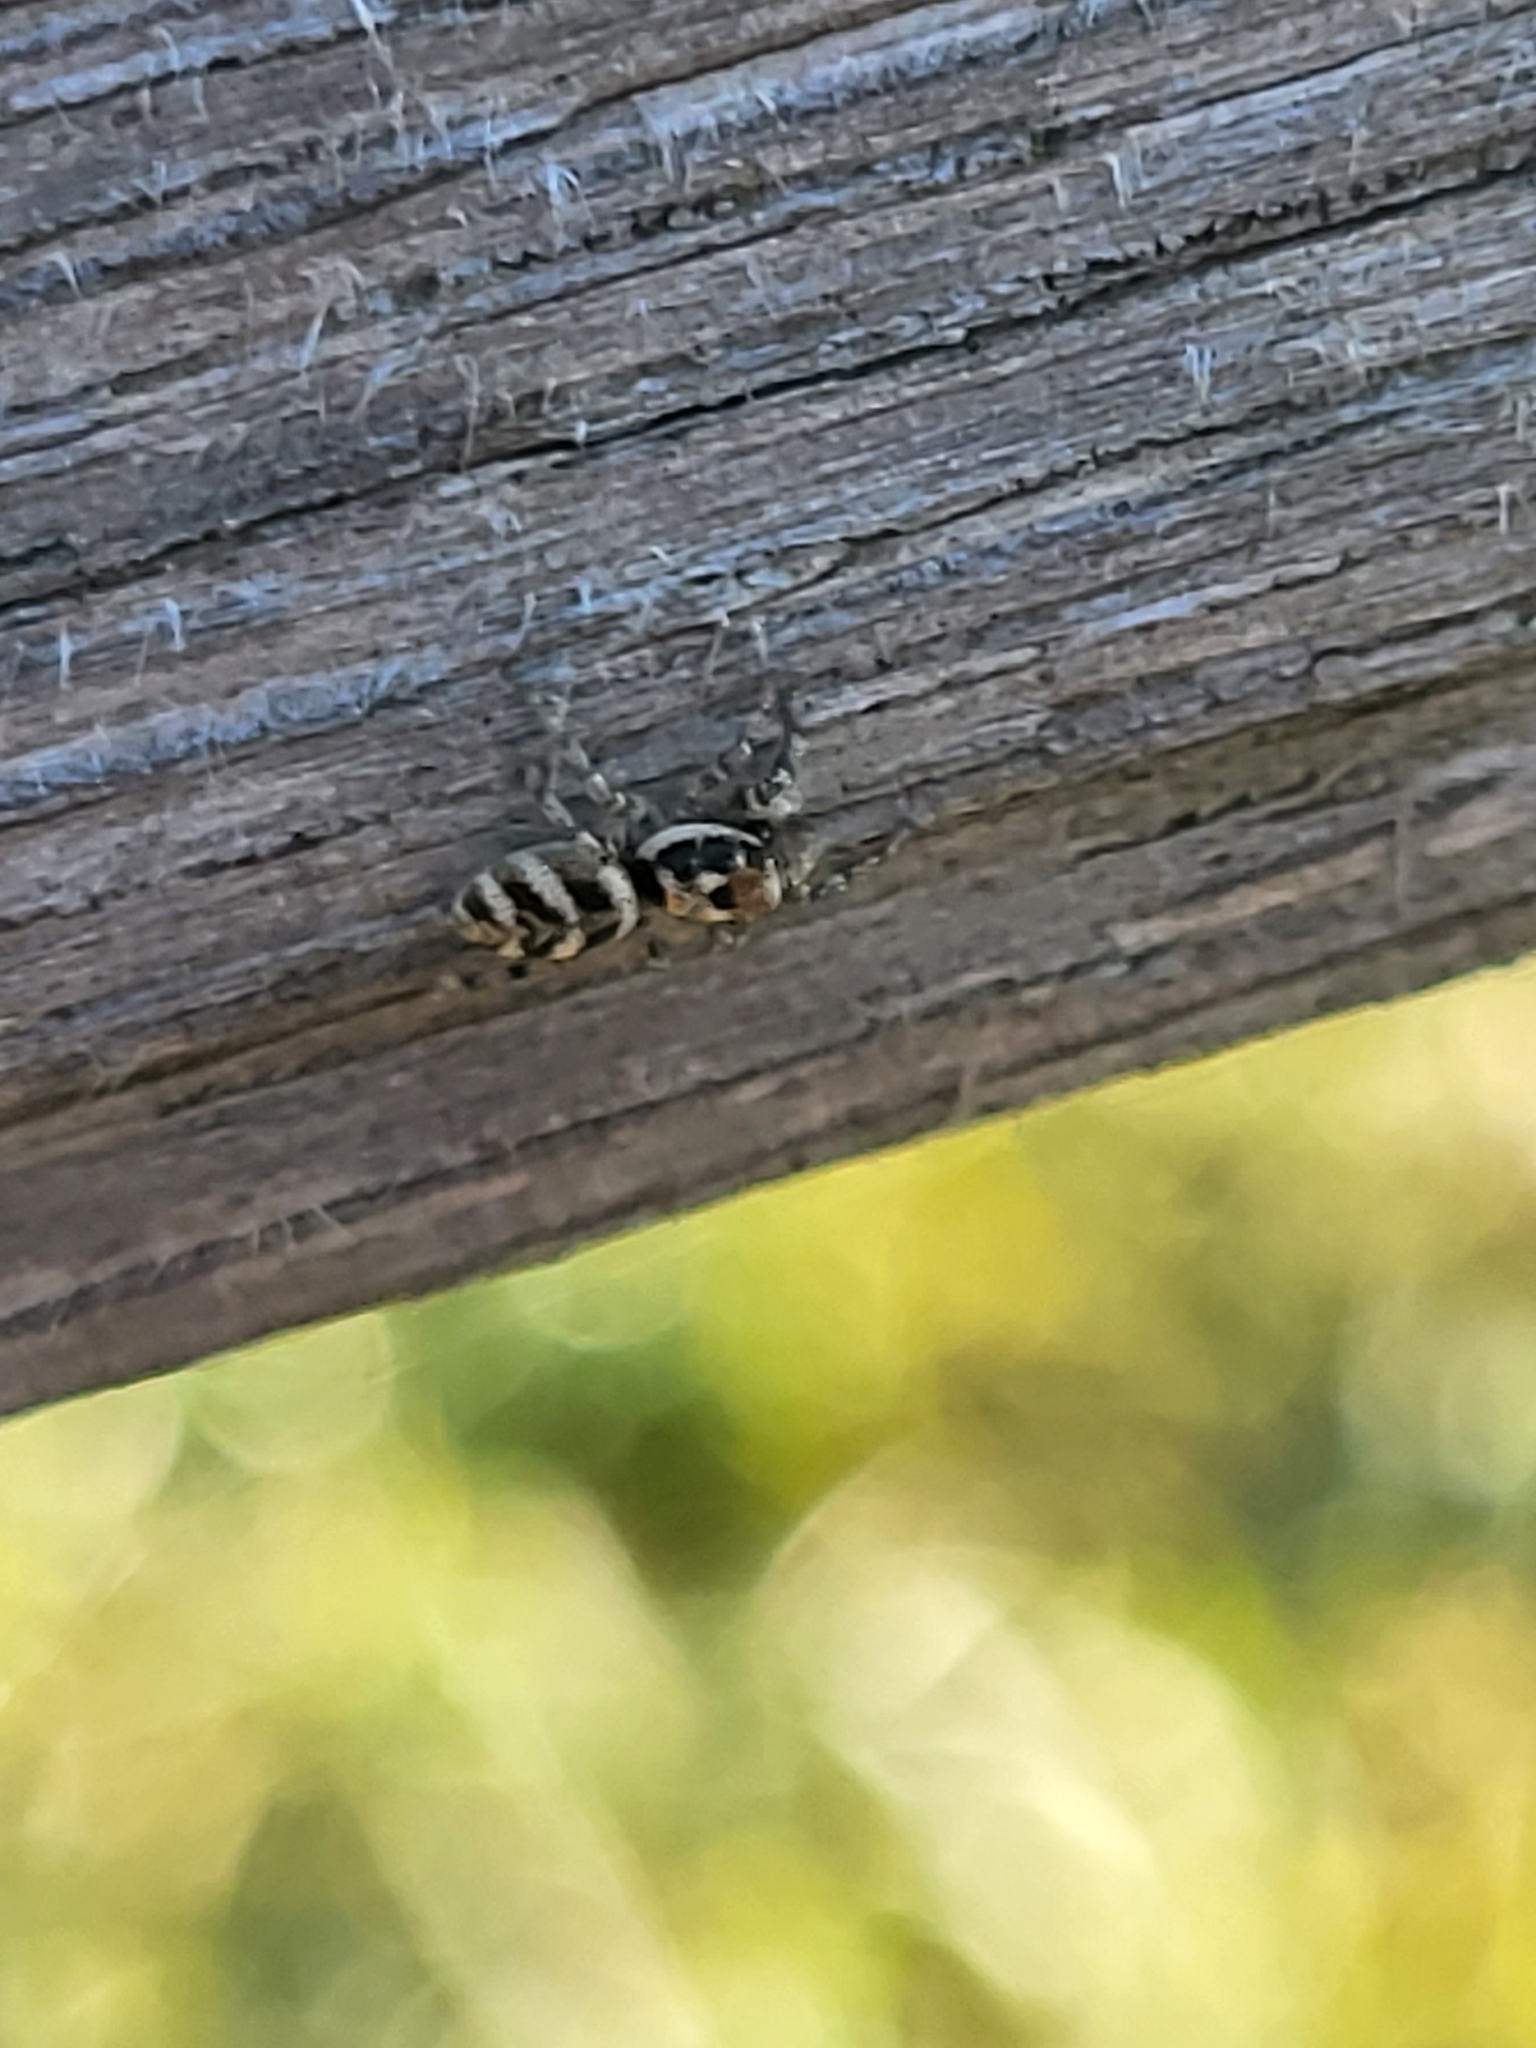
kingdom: Animalia
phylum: Arthropoda
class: Arachnida
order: Araneae
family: Salticidae
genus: Salticus
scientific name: Salticus scenicus
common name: Zebra jumper
